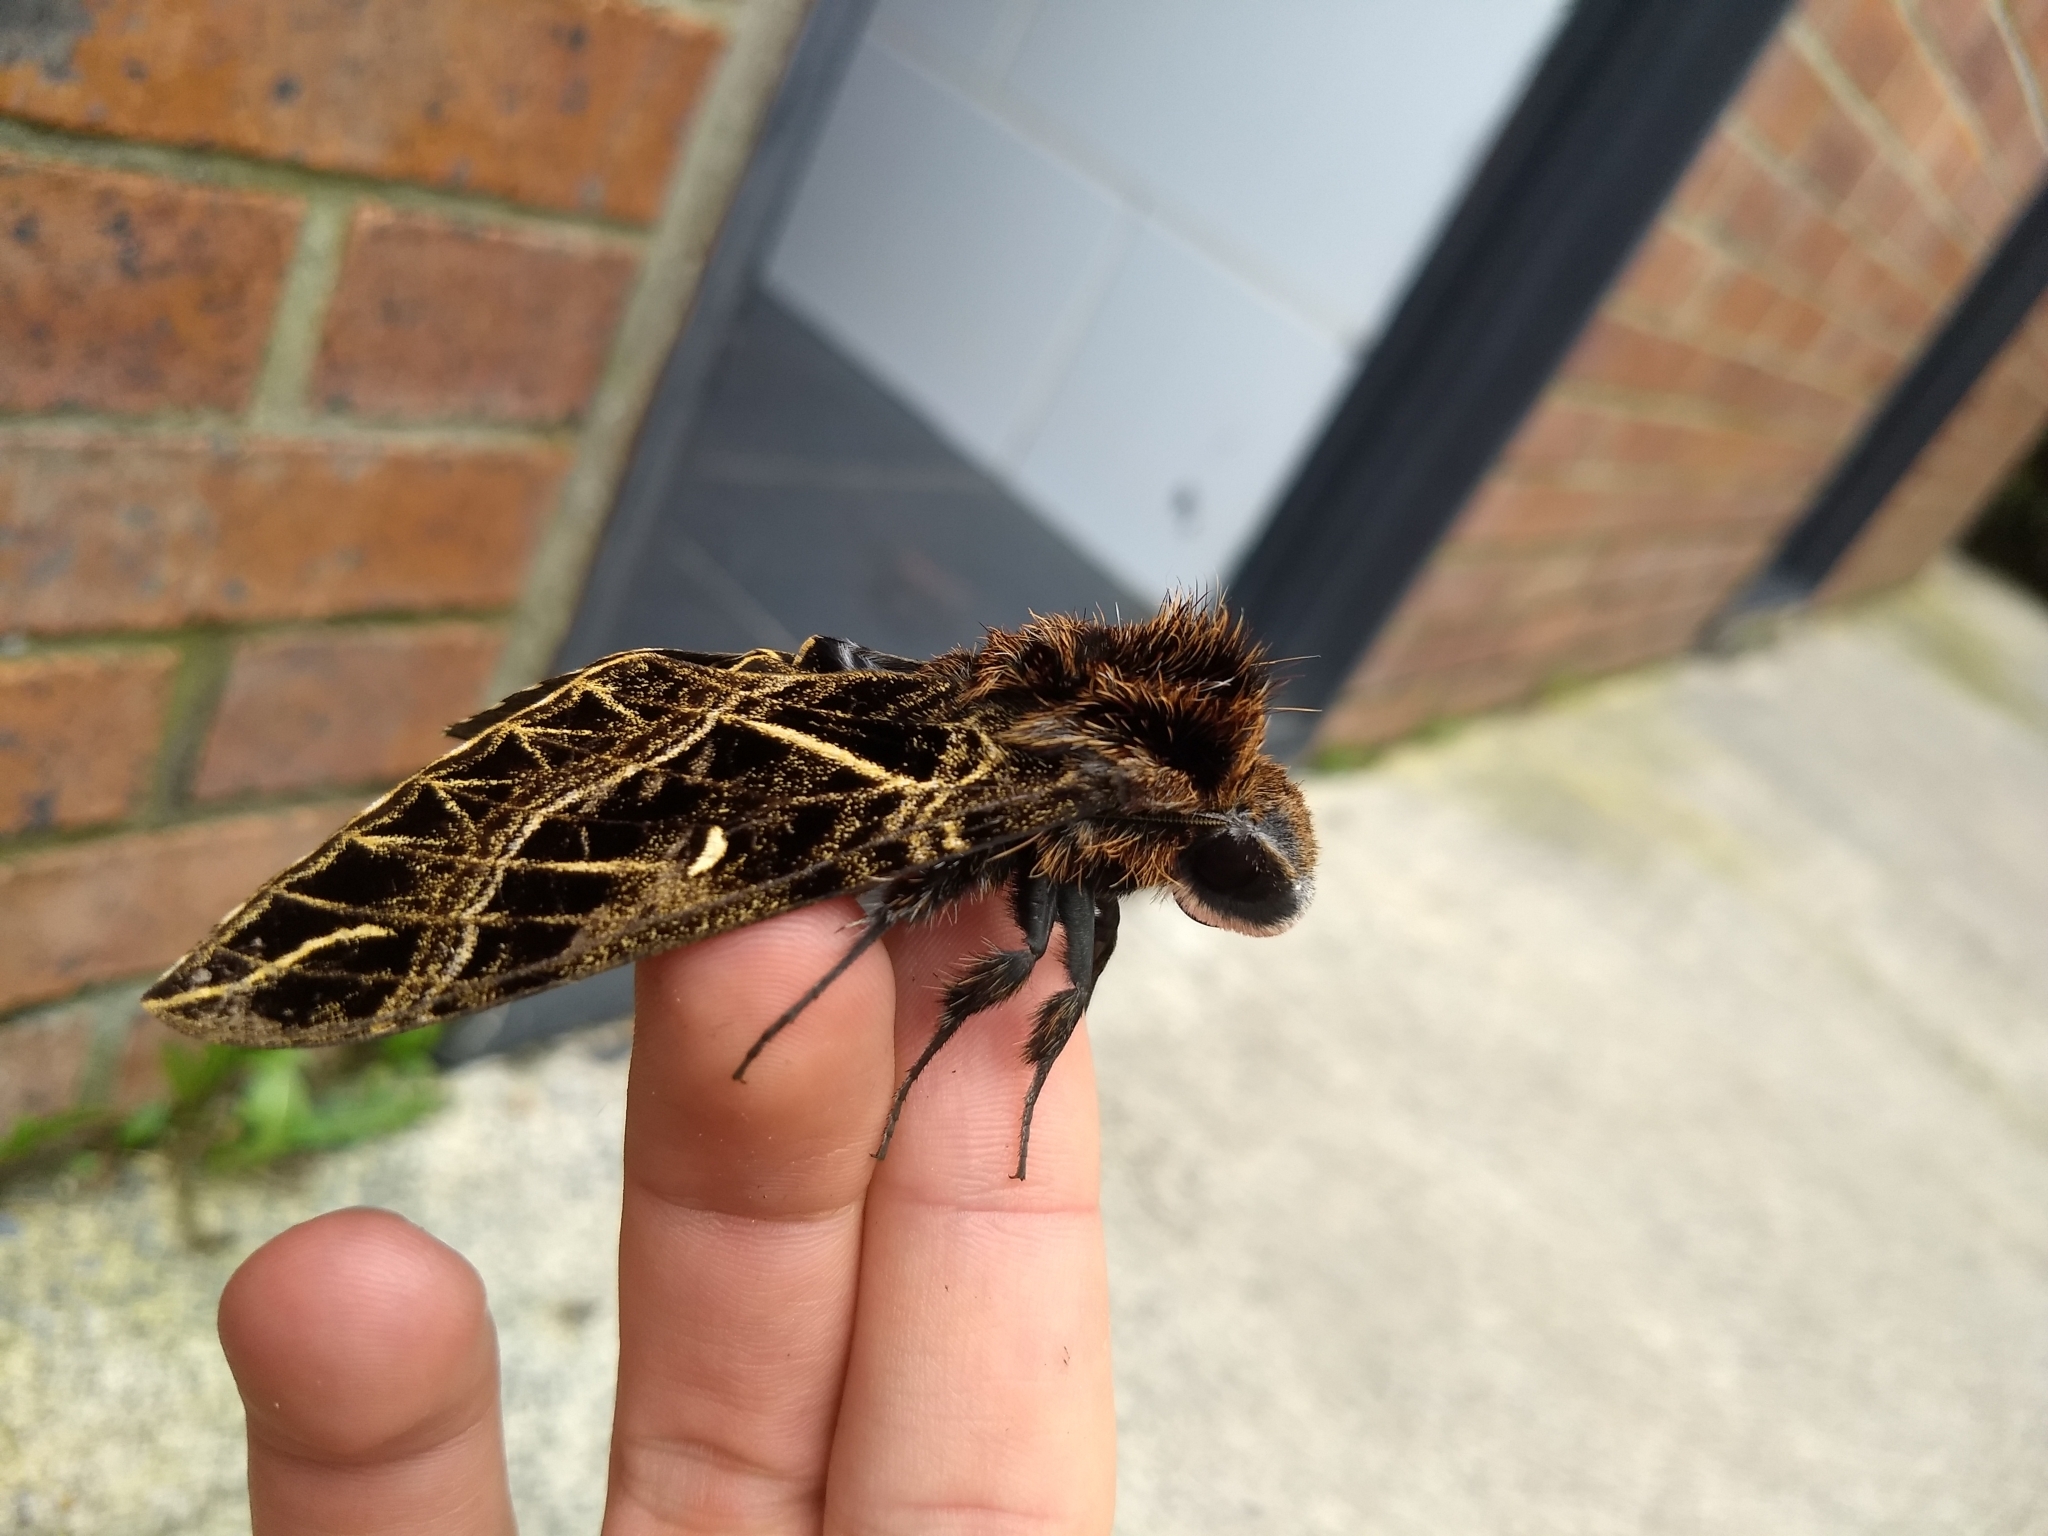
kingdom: Animalia
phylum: Arthropoda
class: Insecta
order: Lepidoptera
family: Sphingidae
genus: Euryglottis
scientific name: Euryglottis aper
